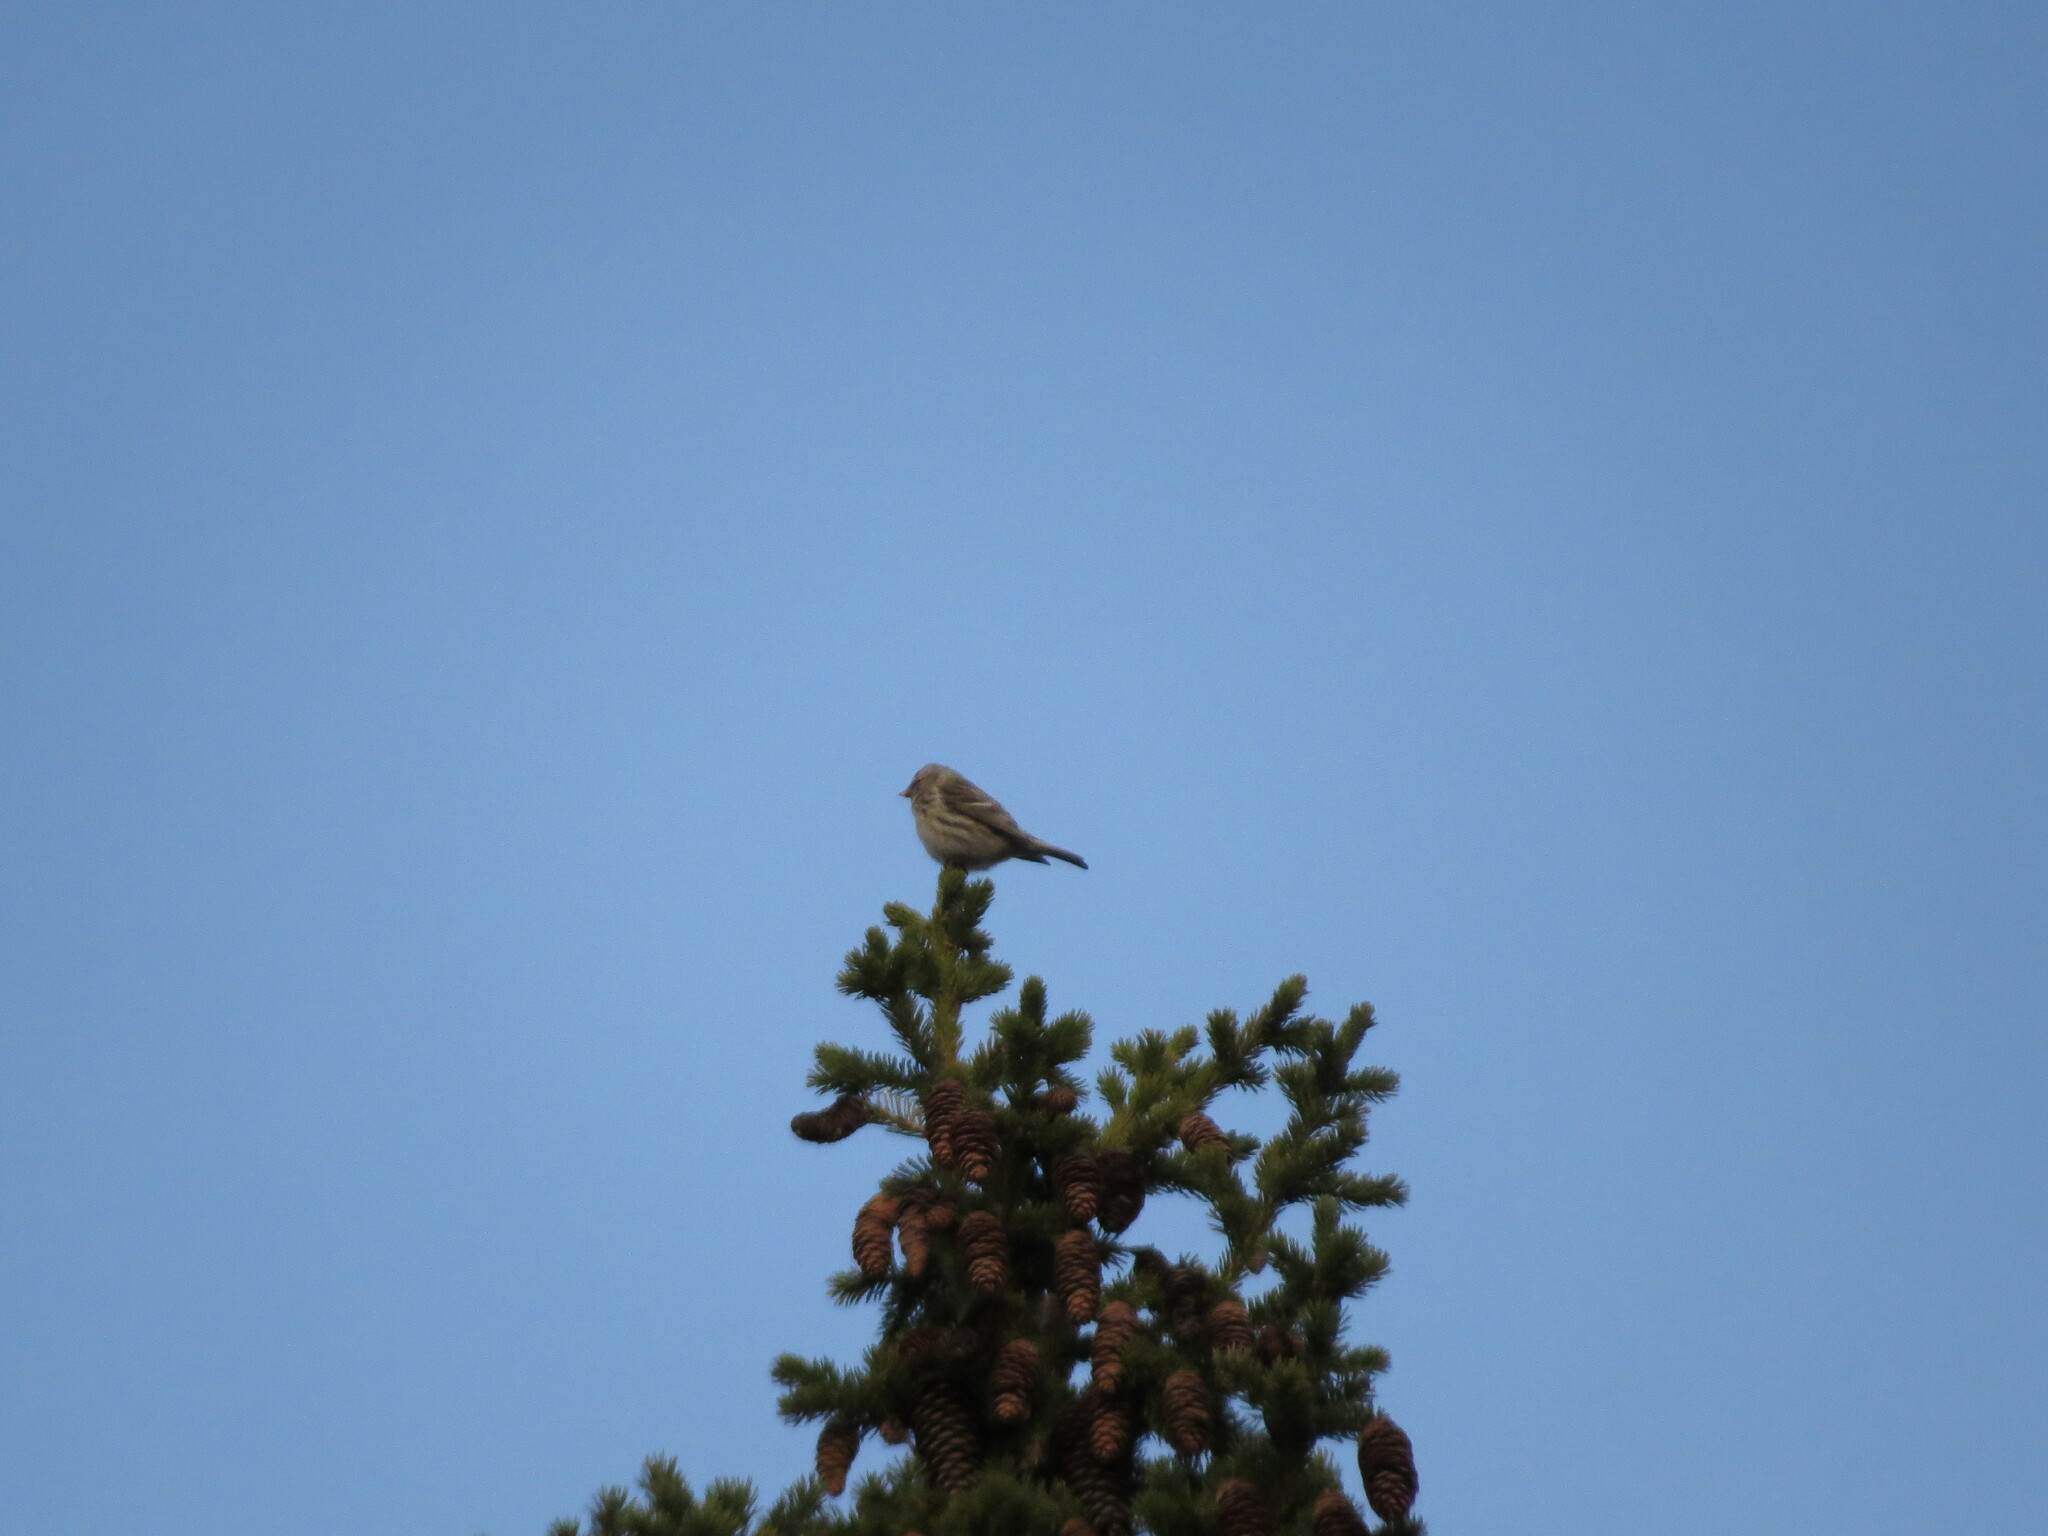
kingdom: Animalia
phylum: Chordata
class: Aves
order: Passeriformes
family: Fringillidae
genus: Acanthis
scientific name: Acanthis flammea
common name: Common redpoll
